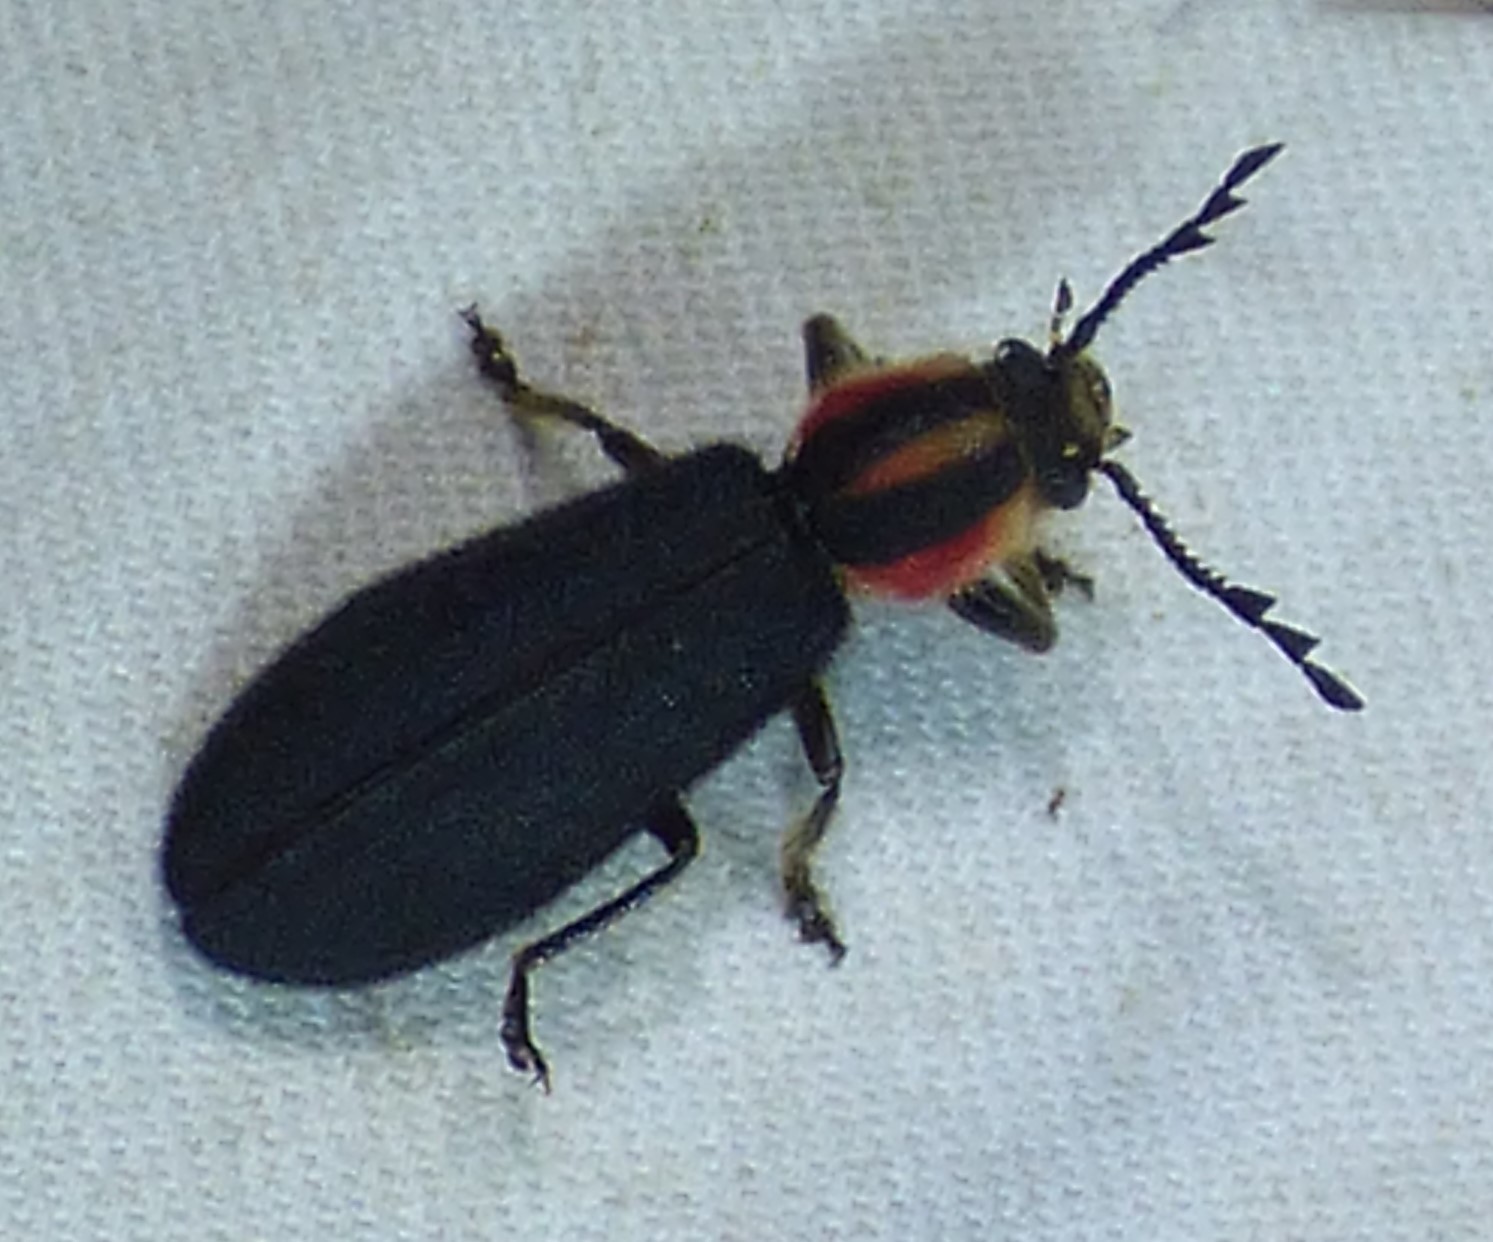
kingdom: Animalia
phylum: Arthropoda
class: Insecta
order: Coleoptera
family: Cleridae
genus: Chariessa
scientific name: Chariessa pilosa
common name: Pilose checkered beetle
